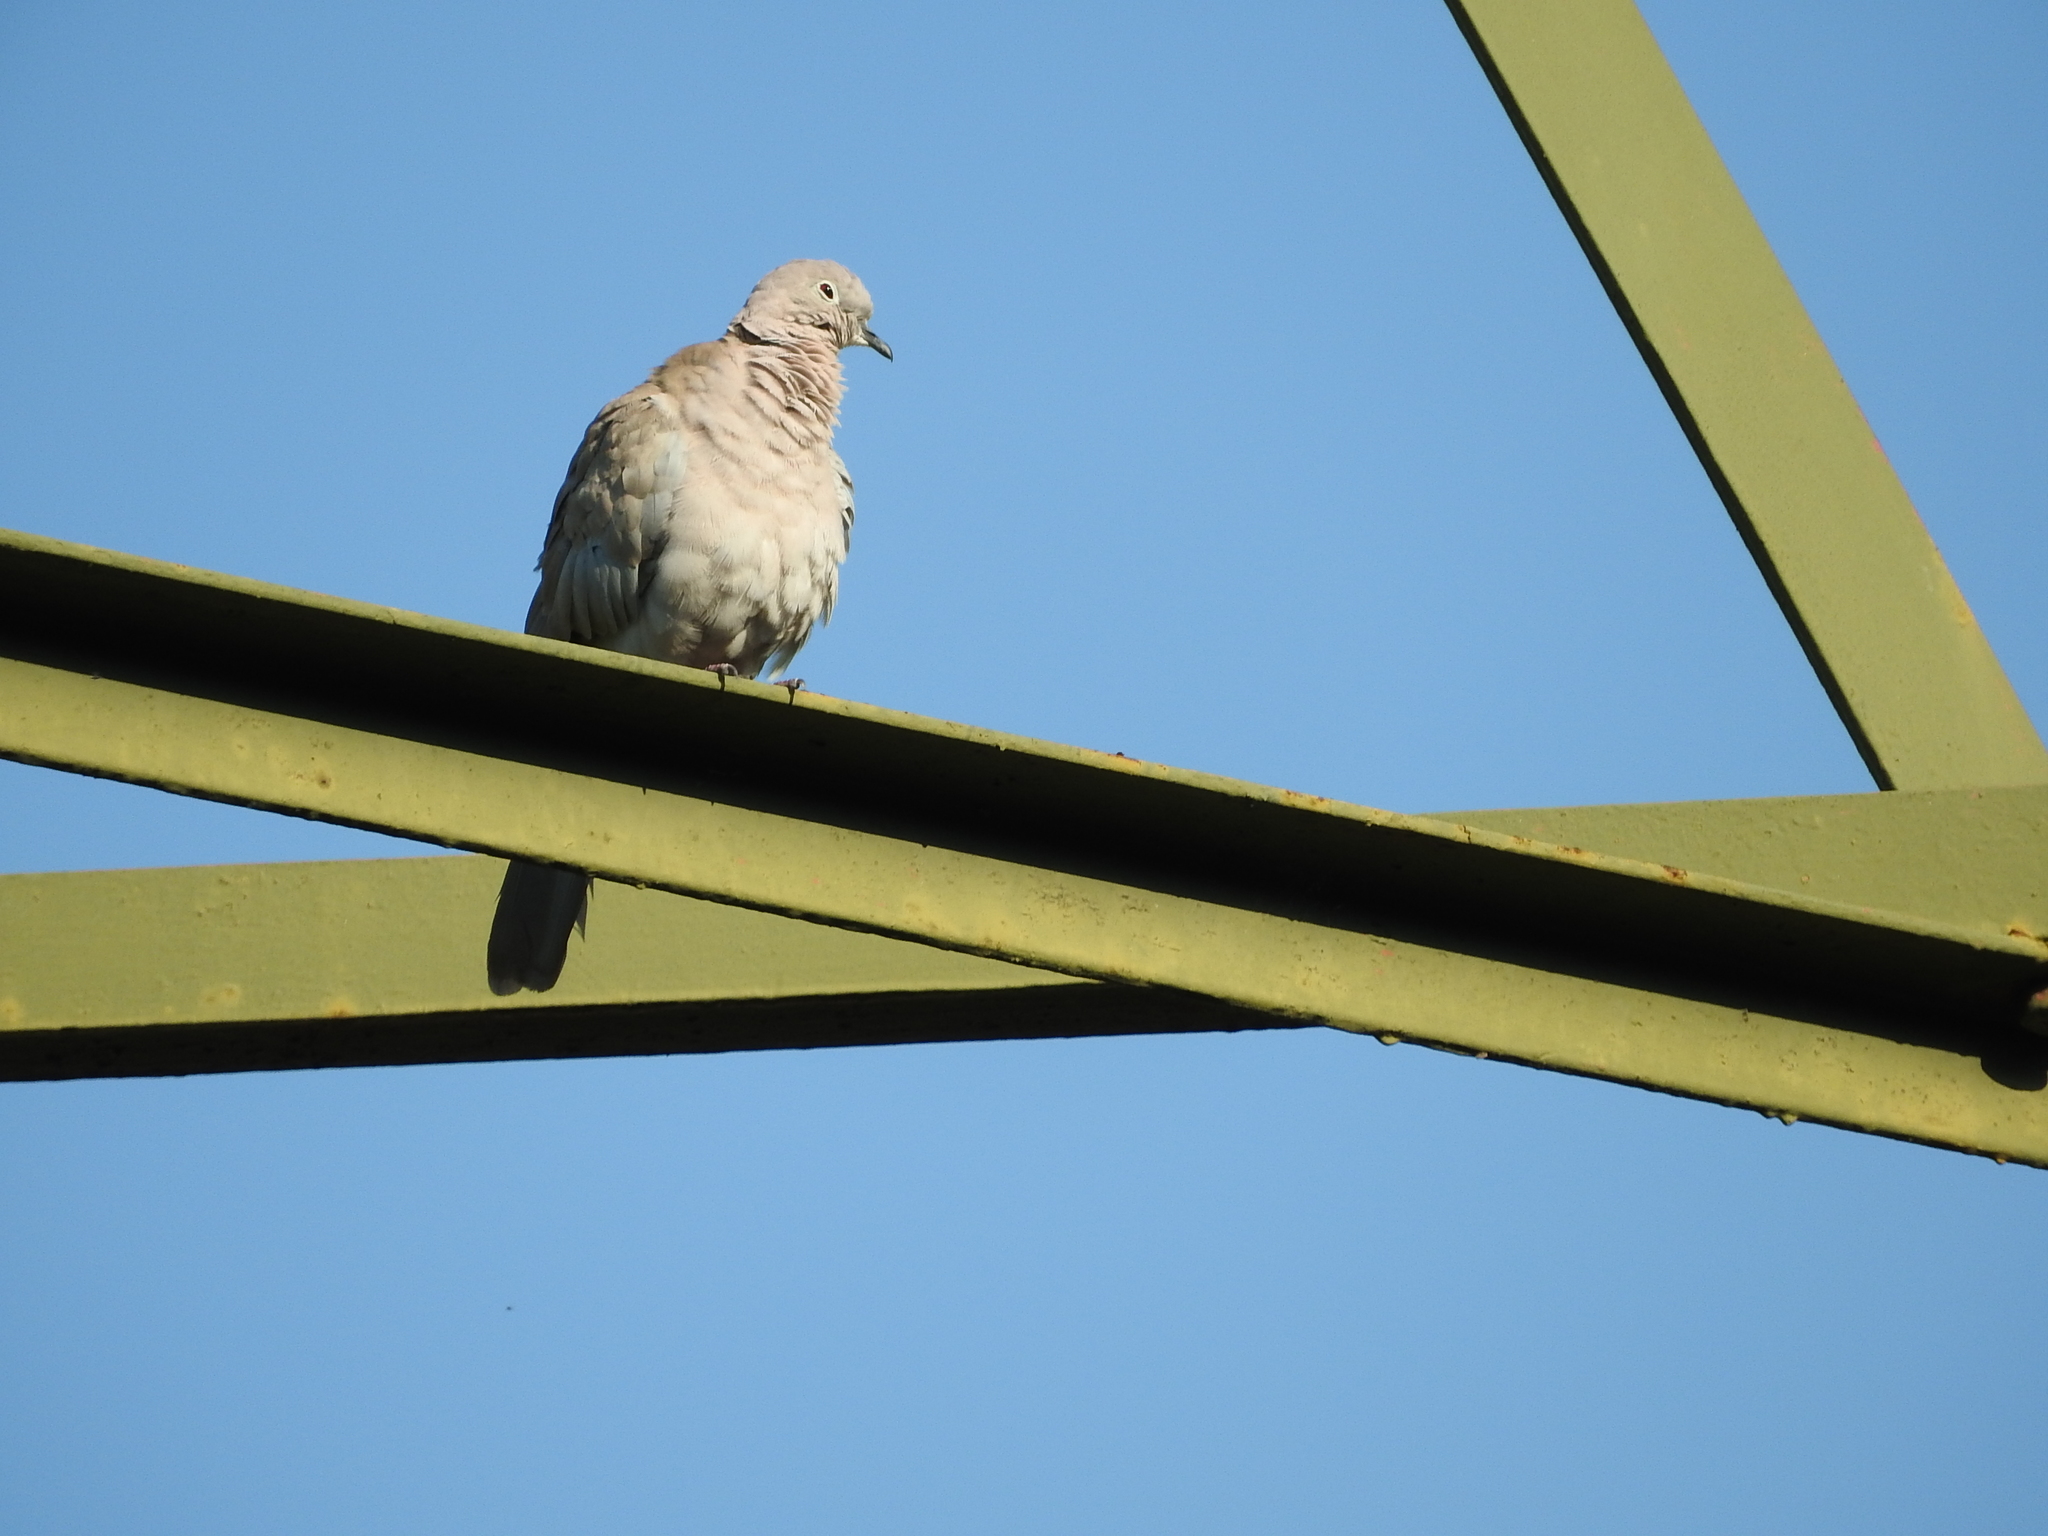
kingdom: Animalia
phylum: Chordata
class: Aves
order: Columbiformes
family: Columbidae
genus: Streptopelia
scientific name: Streptopelia decaocto
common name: Eurasian collared dove
